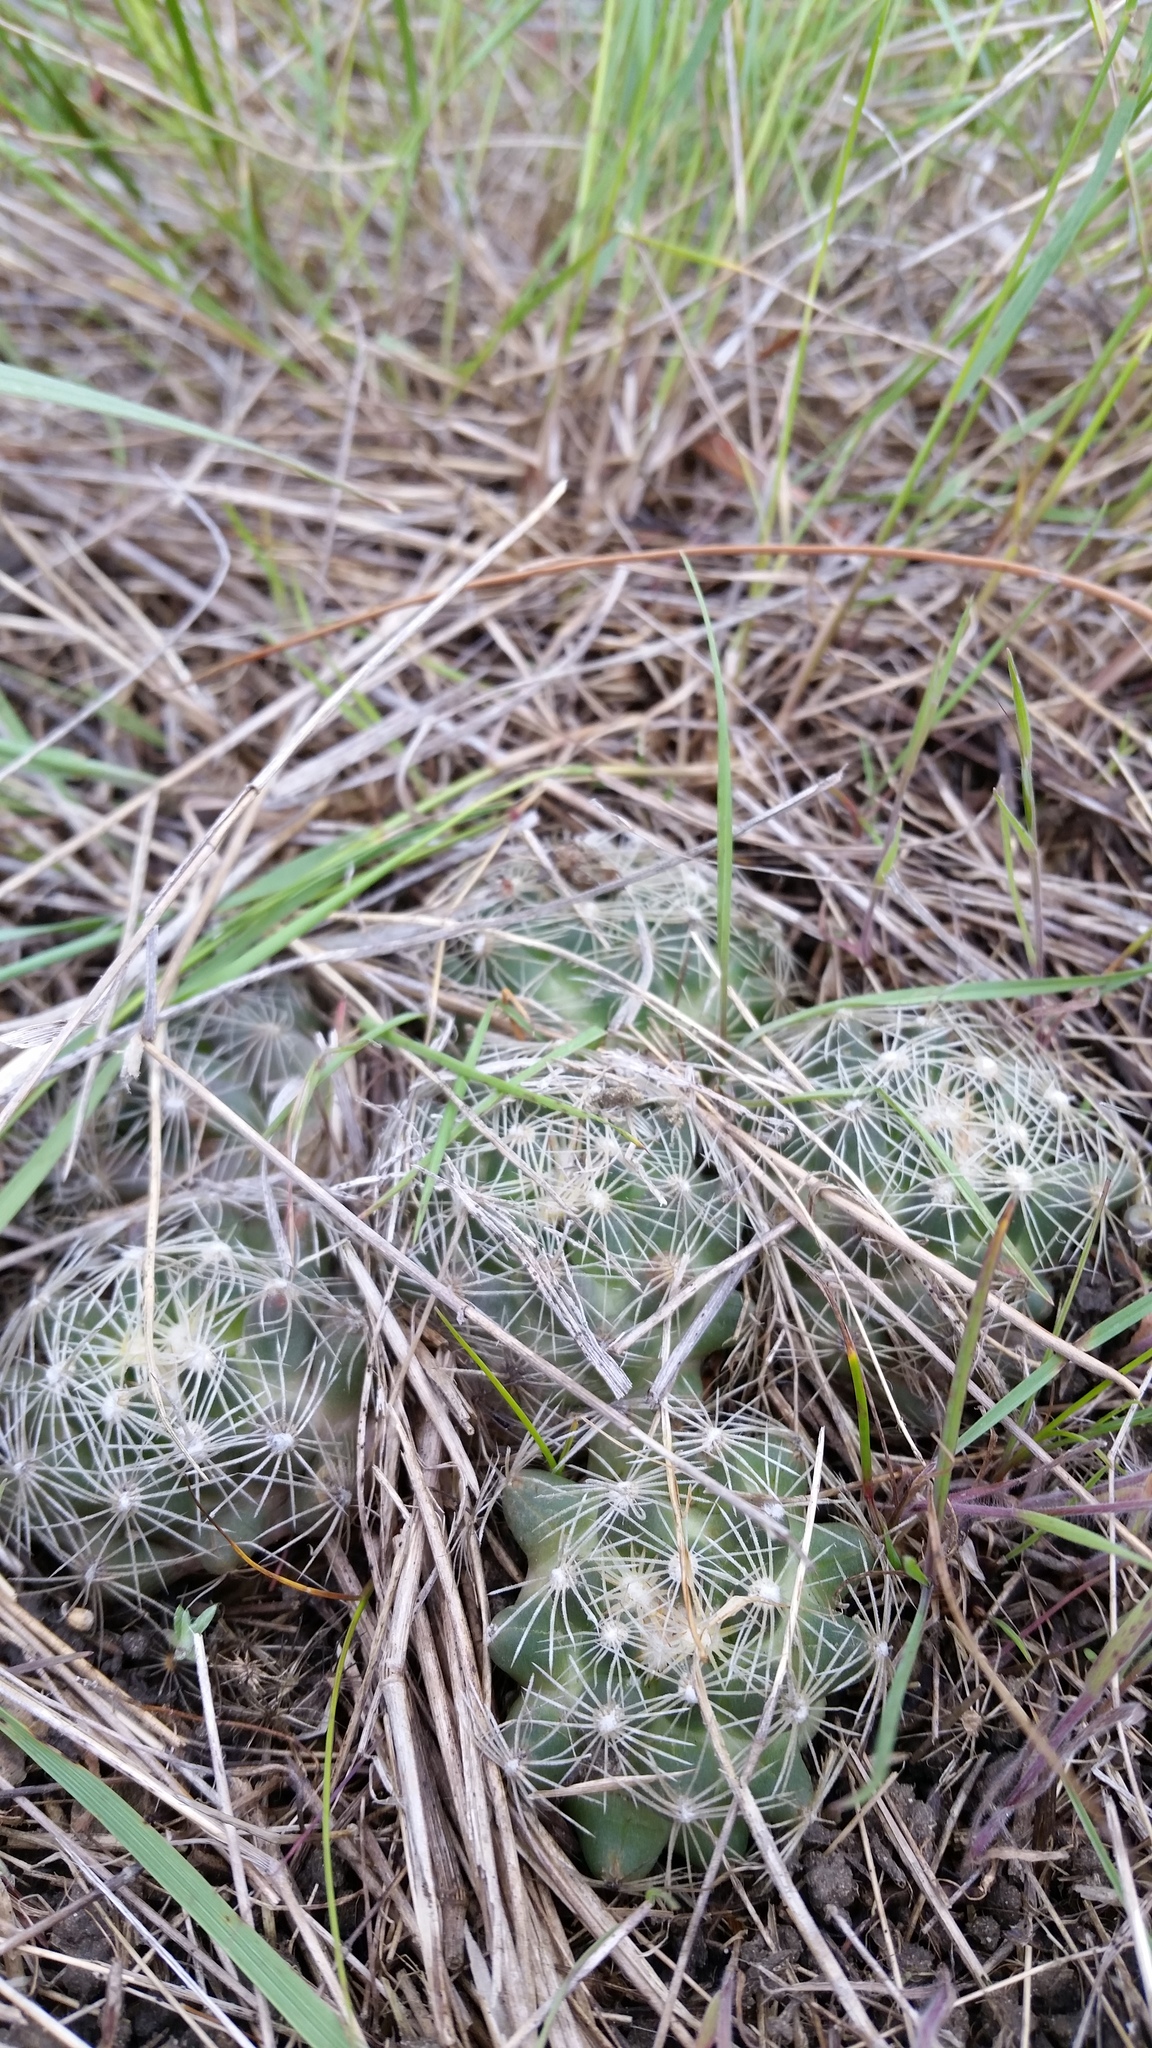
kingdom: Plantae
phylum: Tracheophyta
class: Magnoliopsida
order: Caryophyllales
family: Cactaceae
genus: Pelecyphora
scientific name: Pelecyphora missouriensis
